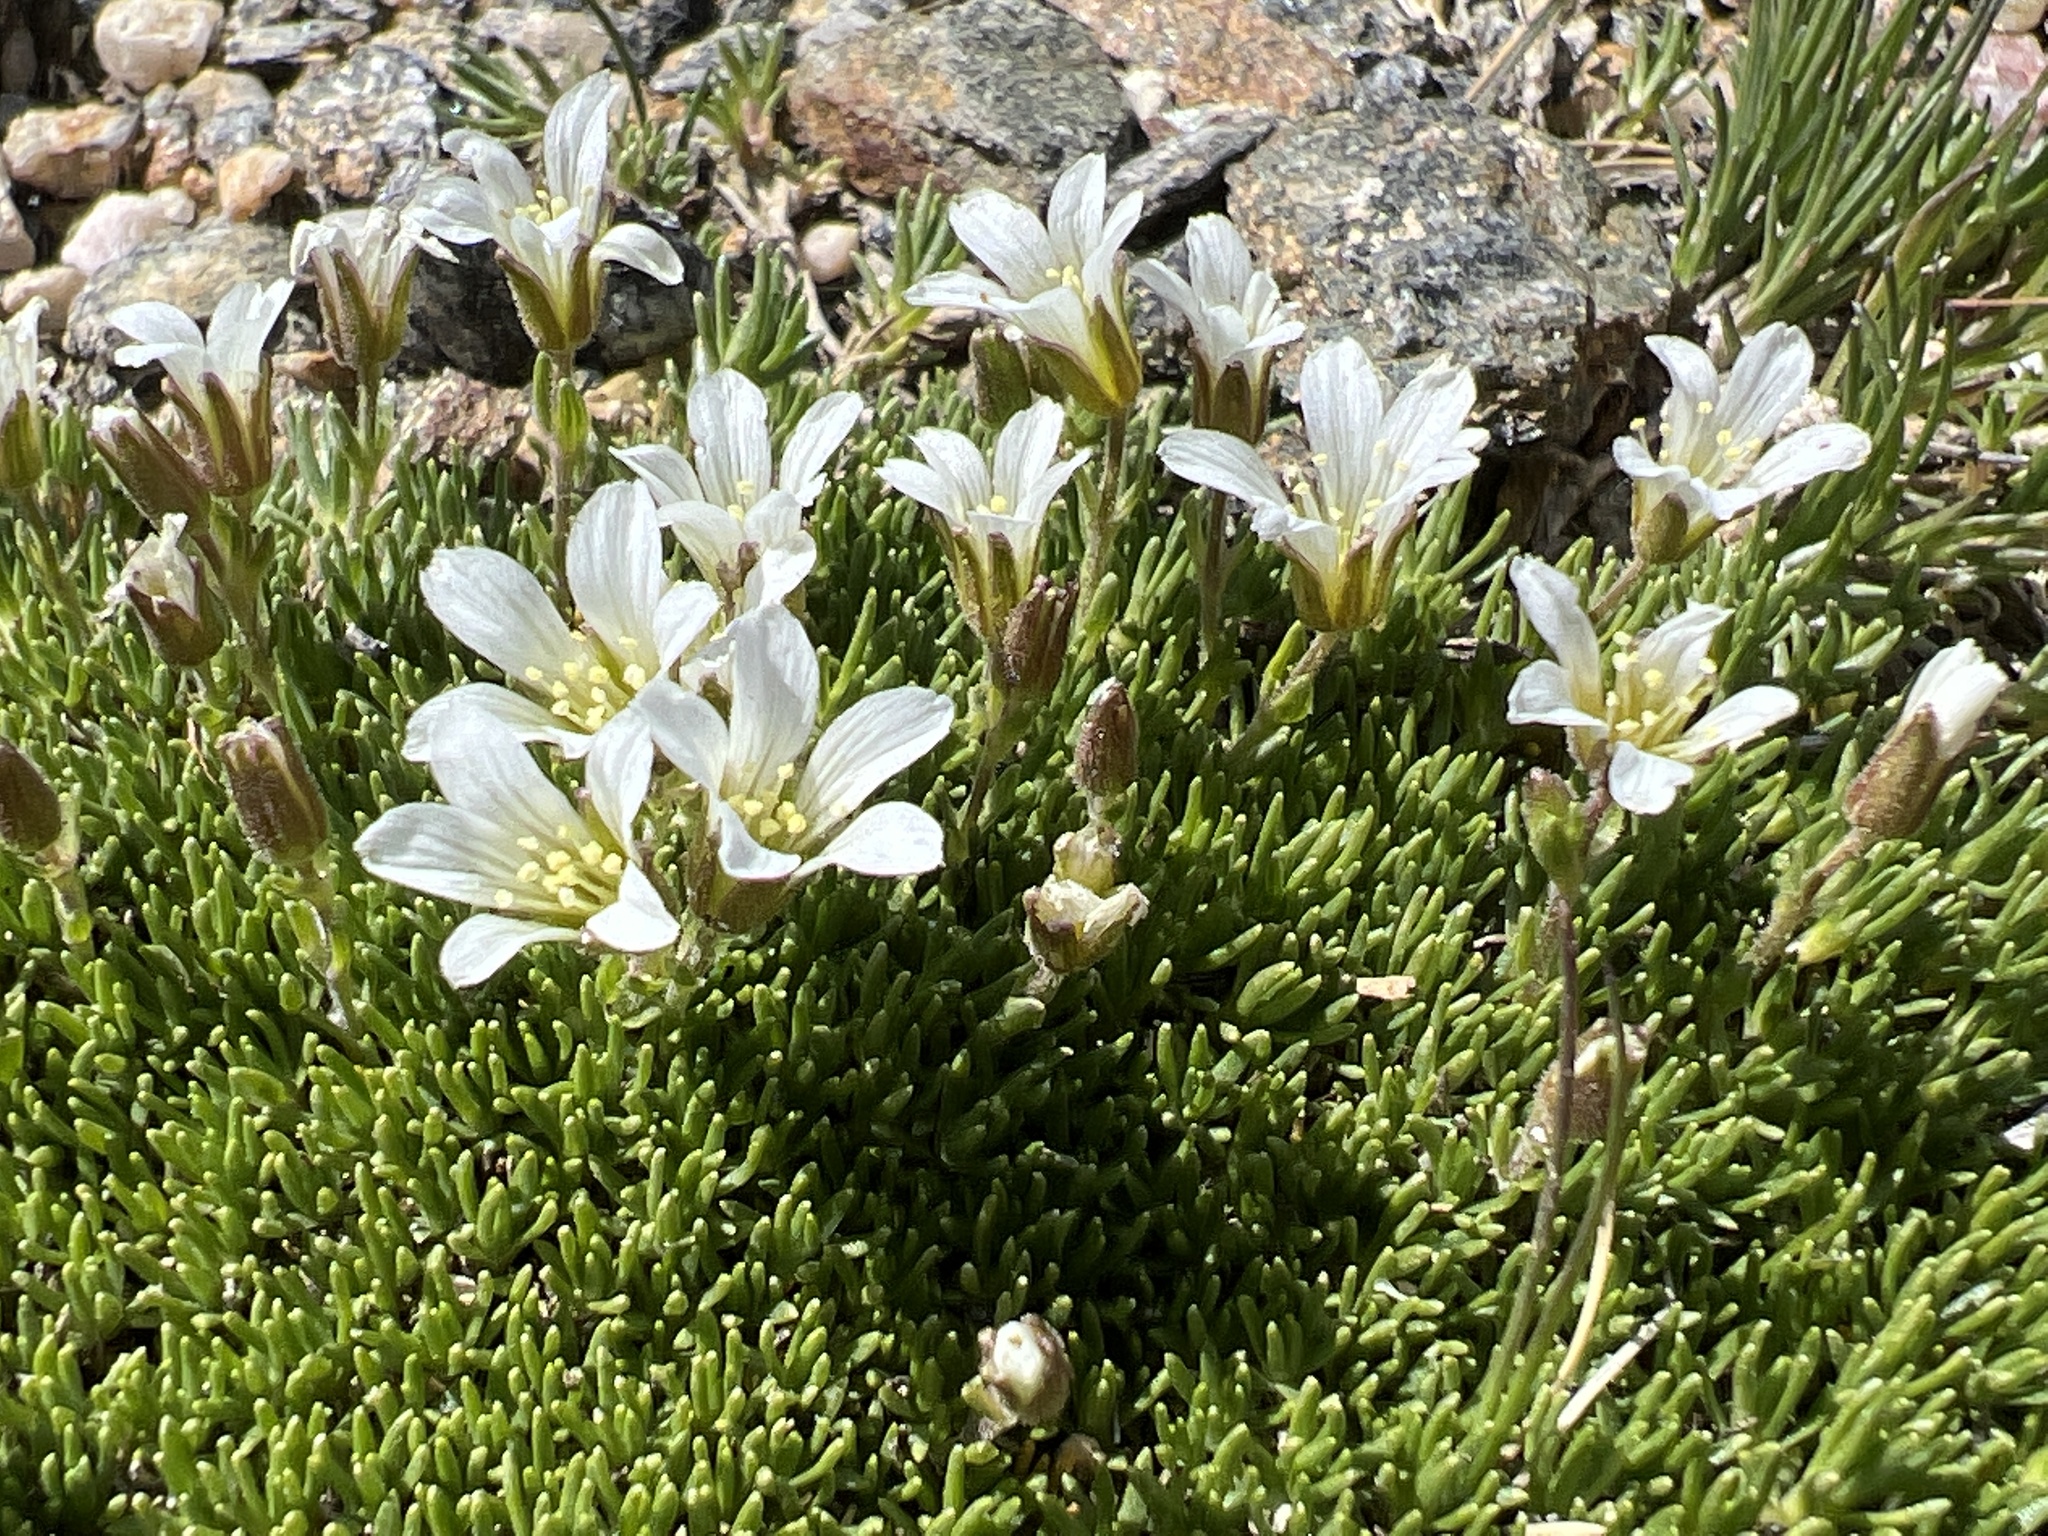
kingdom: Plantae
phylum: Tracheophyta
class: Magnoliopsida
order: Caryophyllales
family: Caryophyllaceae
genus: Cherleria
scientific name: Cherleria obtusiloba
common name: Alpine stitchwort
